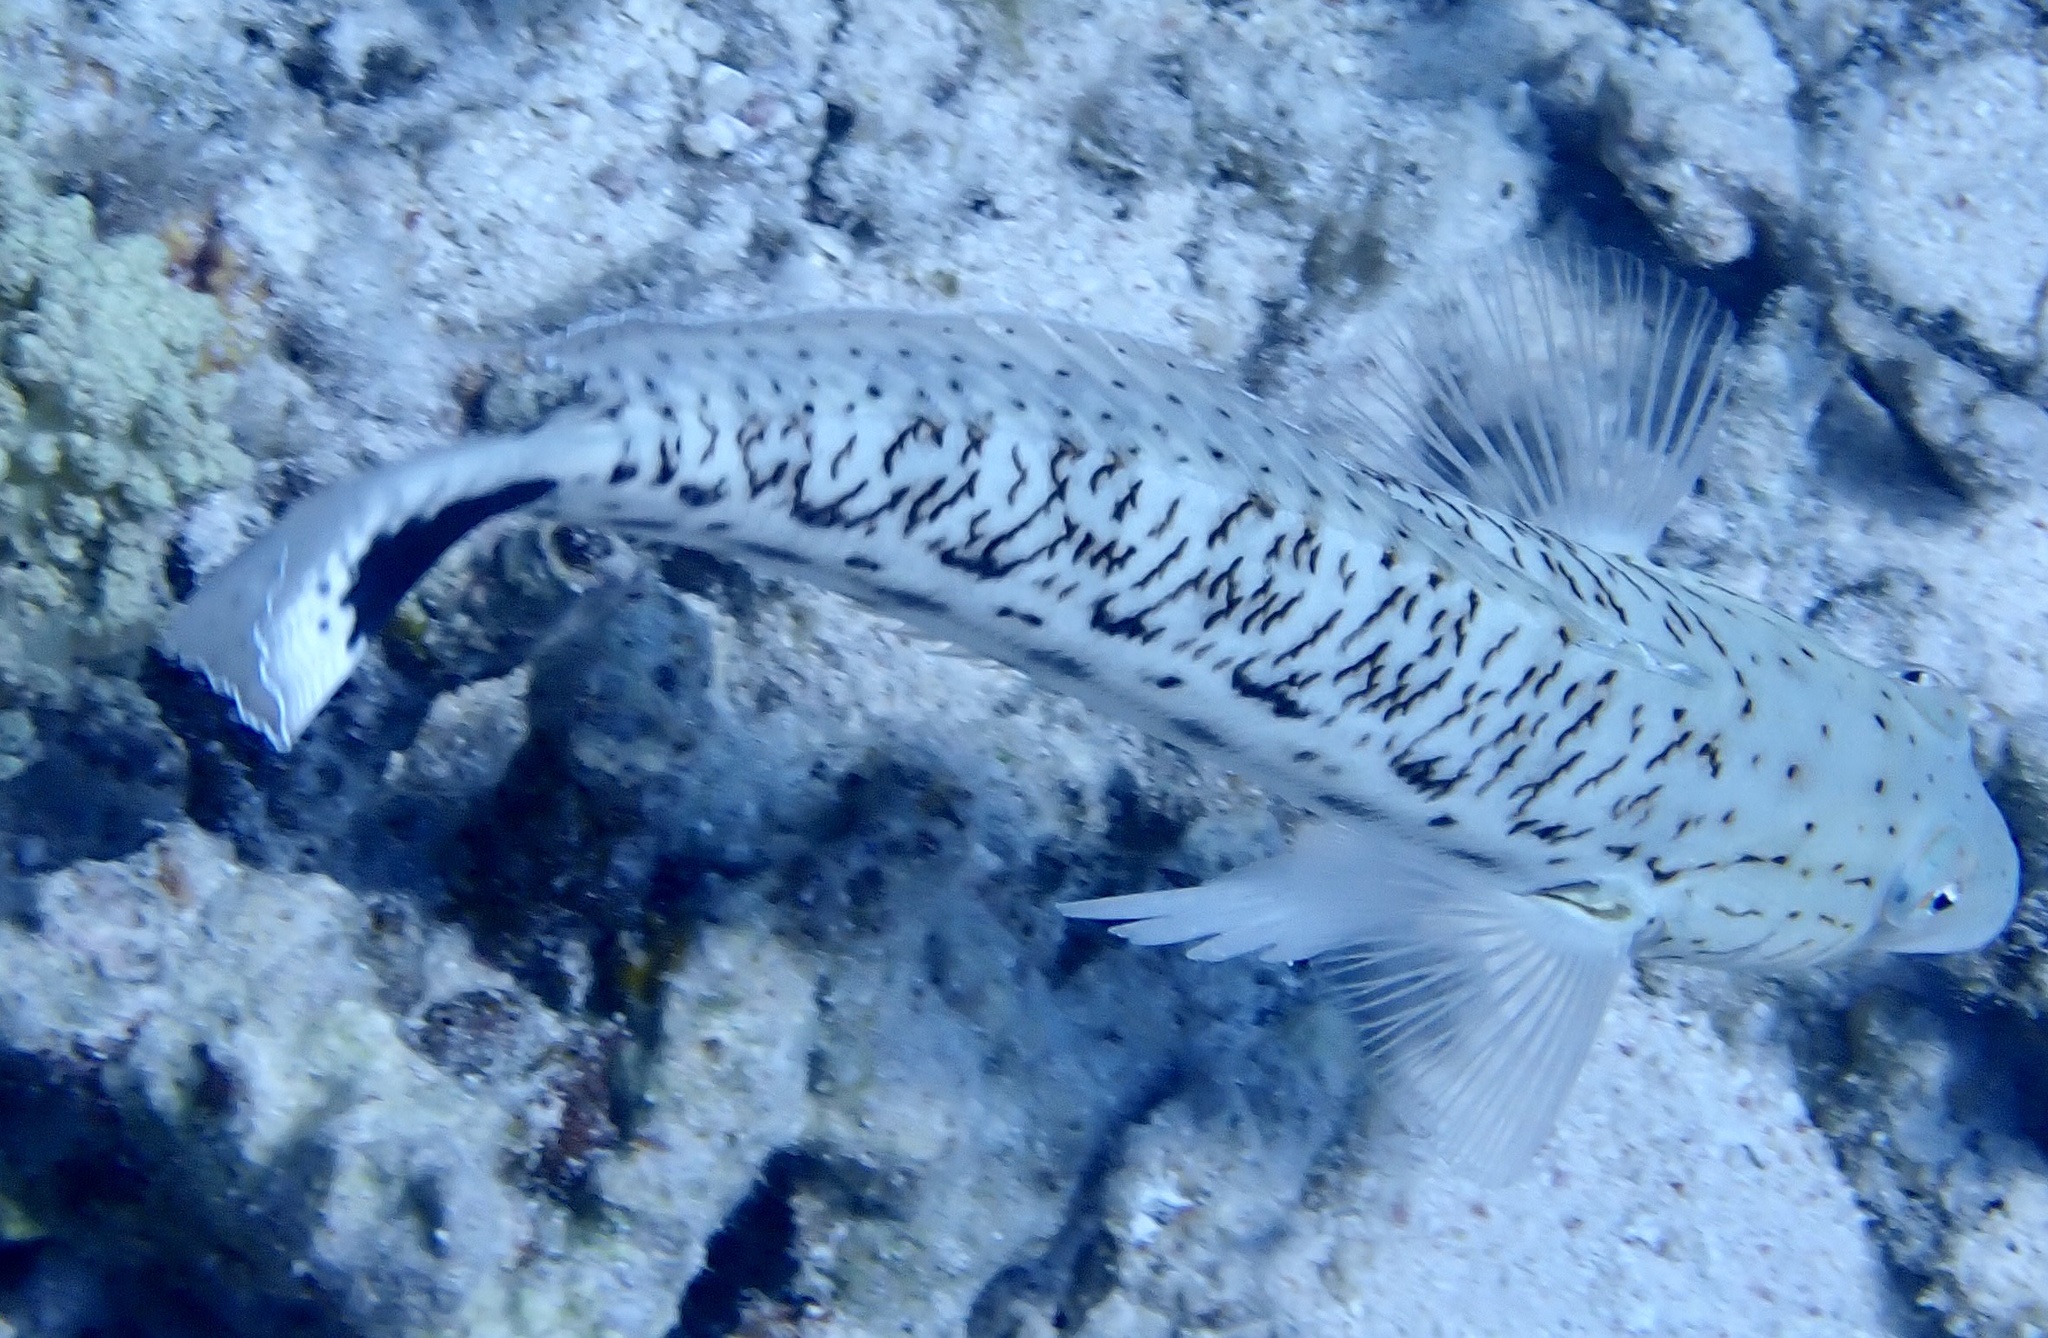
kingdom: Animalia
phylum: Chordata
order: Perciformes
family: Pinguipedidae
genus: Parapercis
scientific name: Parapercis hexophtalma
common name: Speckled sandperch
